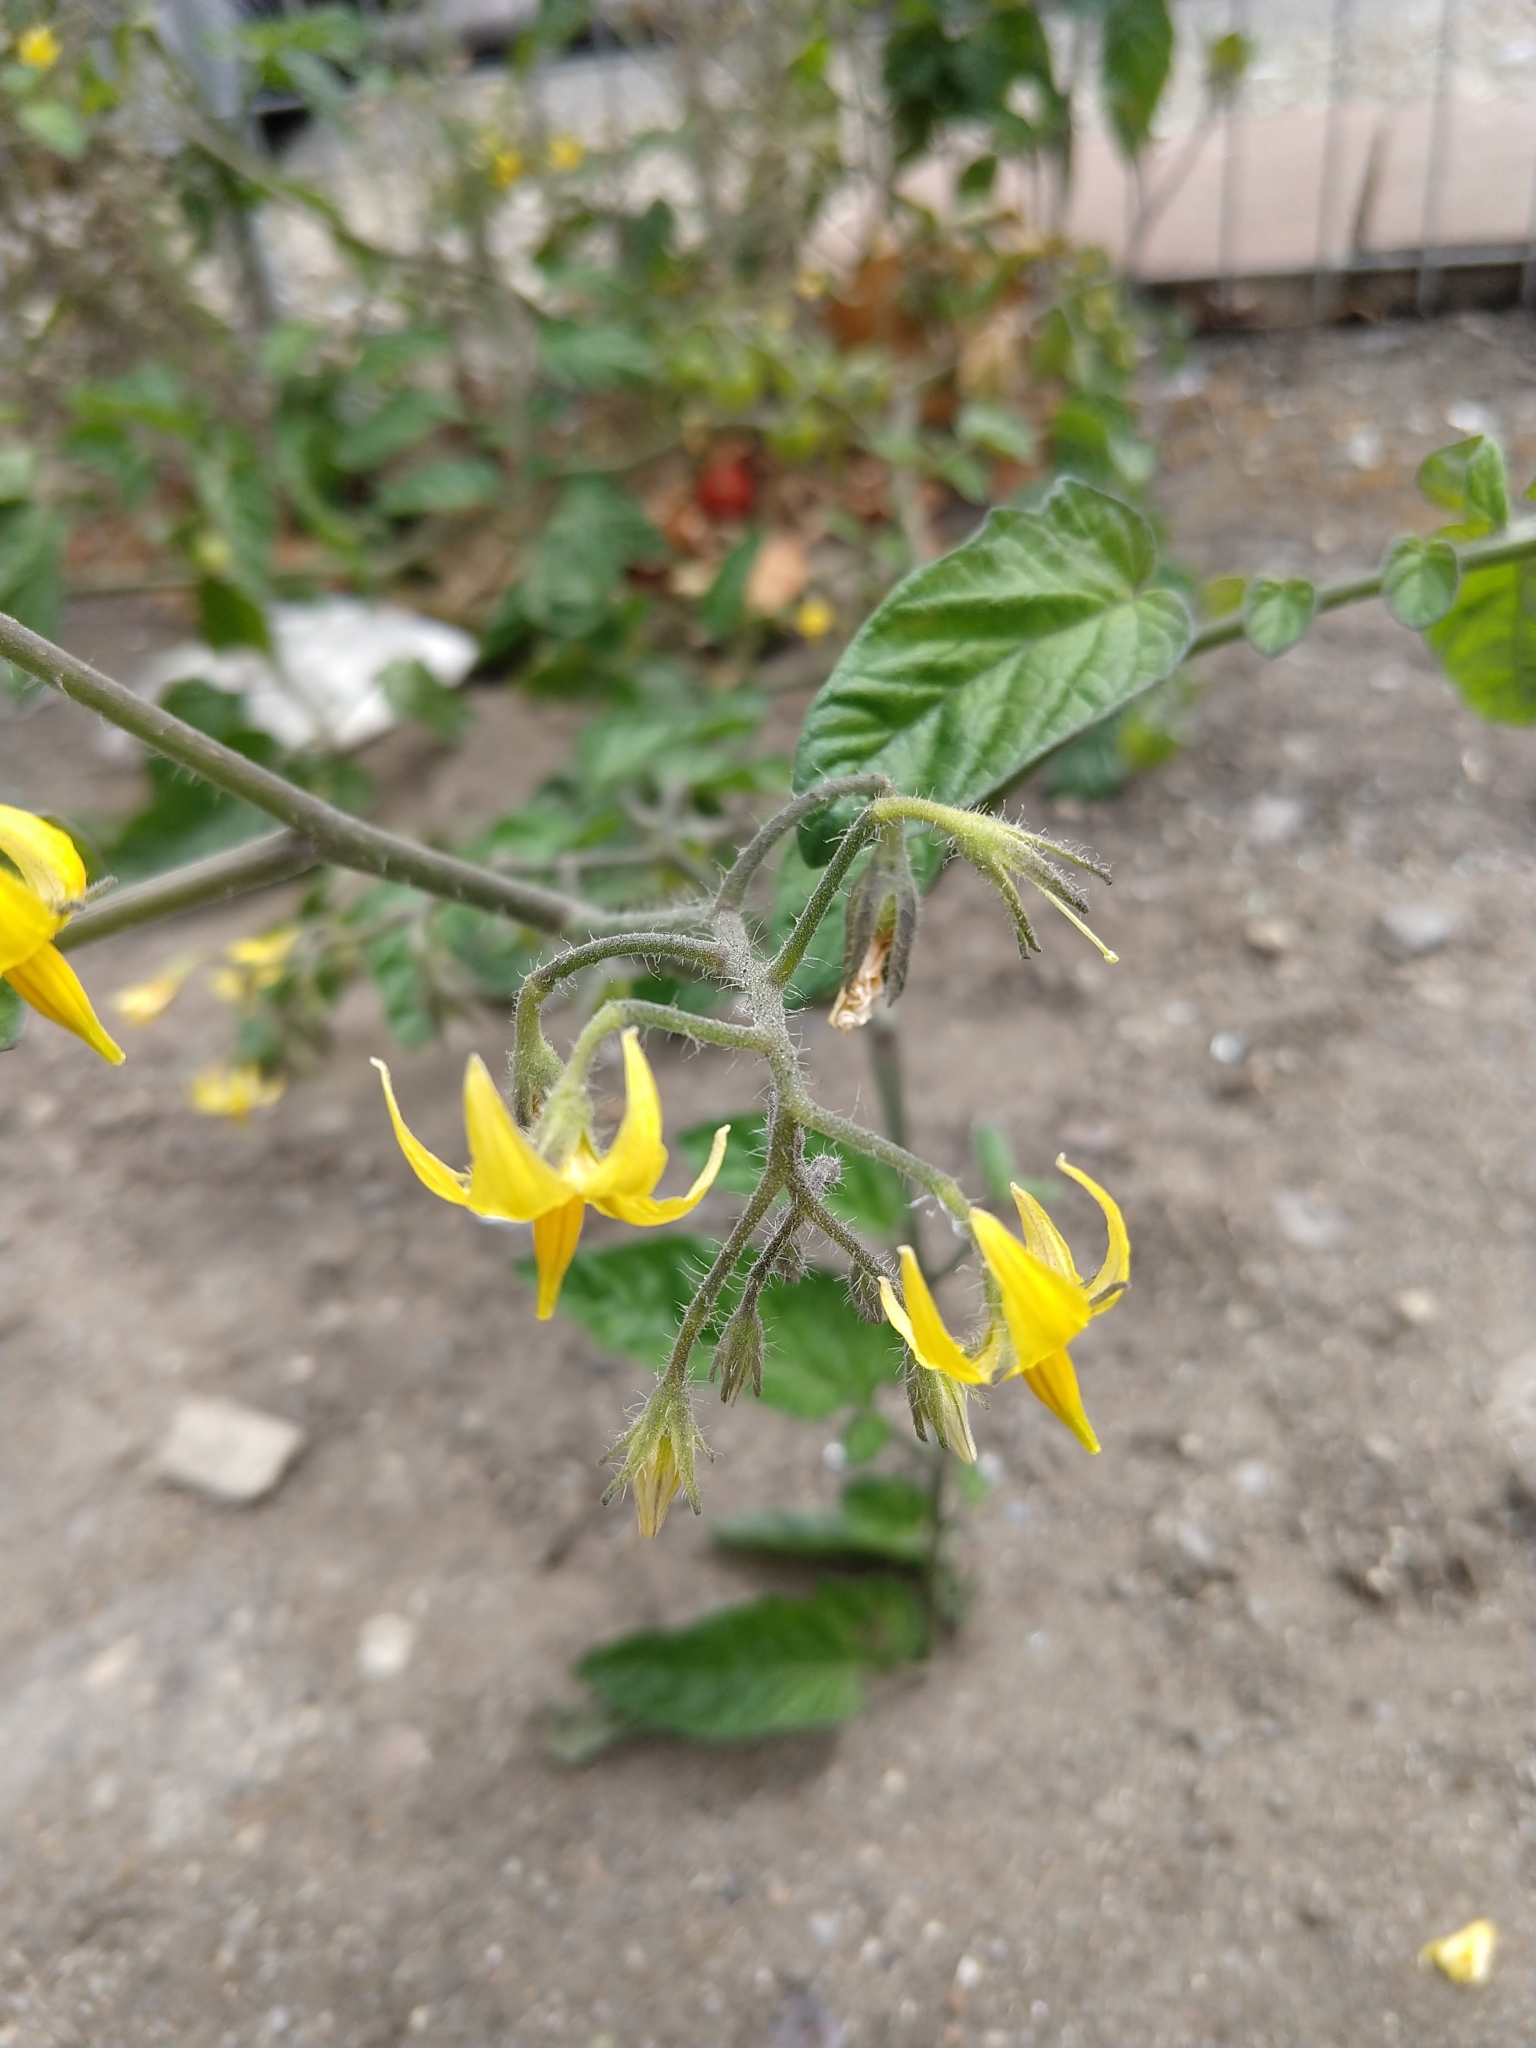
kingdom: Plantae
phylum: Tracheophyta
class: Magnoliopsida
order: Solanales
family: Solanaceae
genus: Solanum
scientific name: Solanum lycopersicum
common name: Garden tomato
